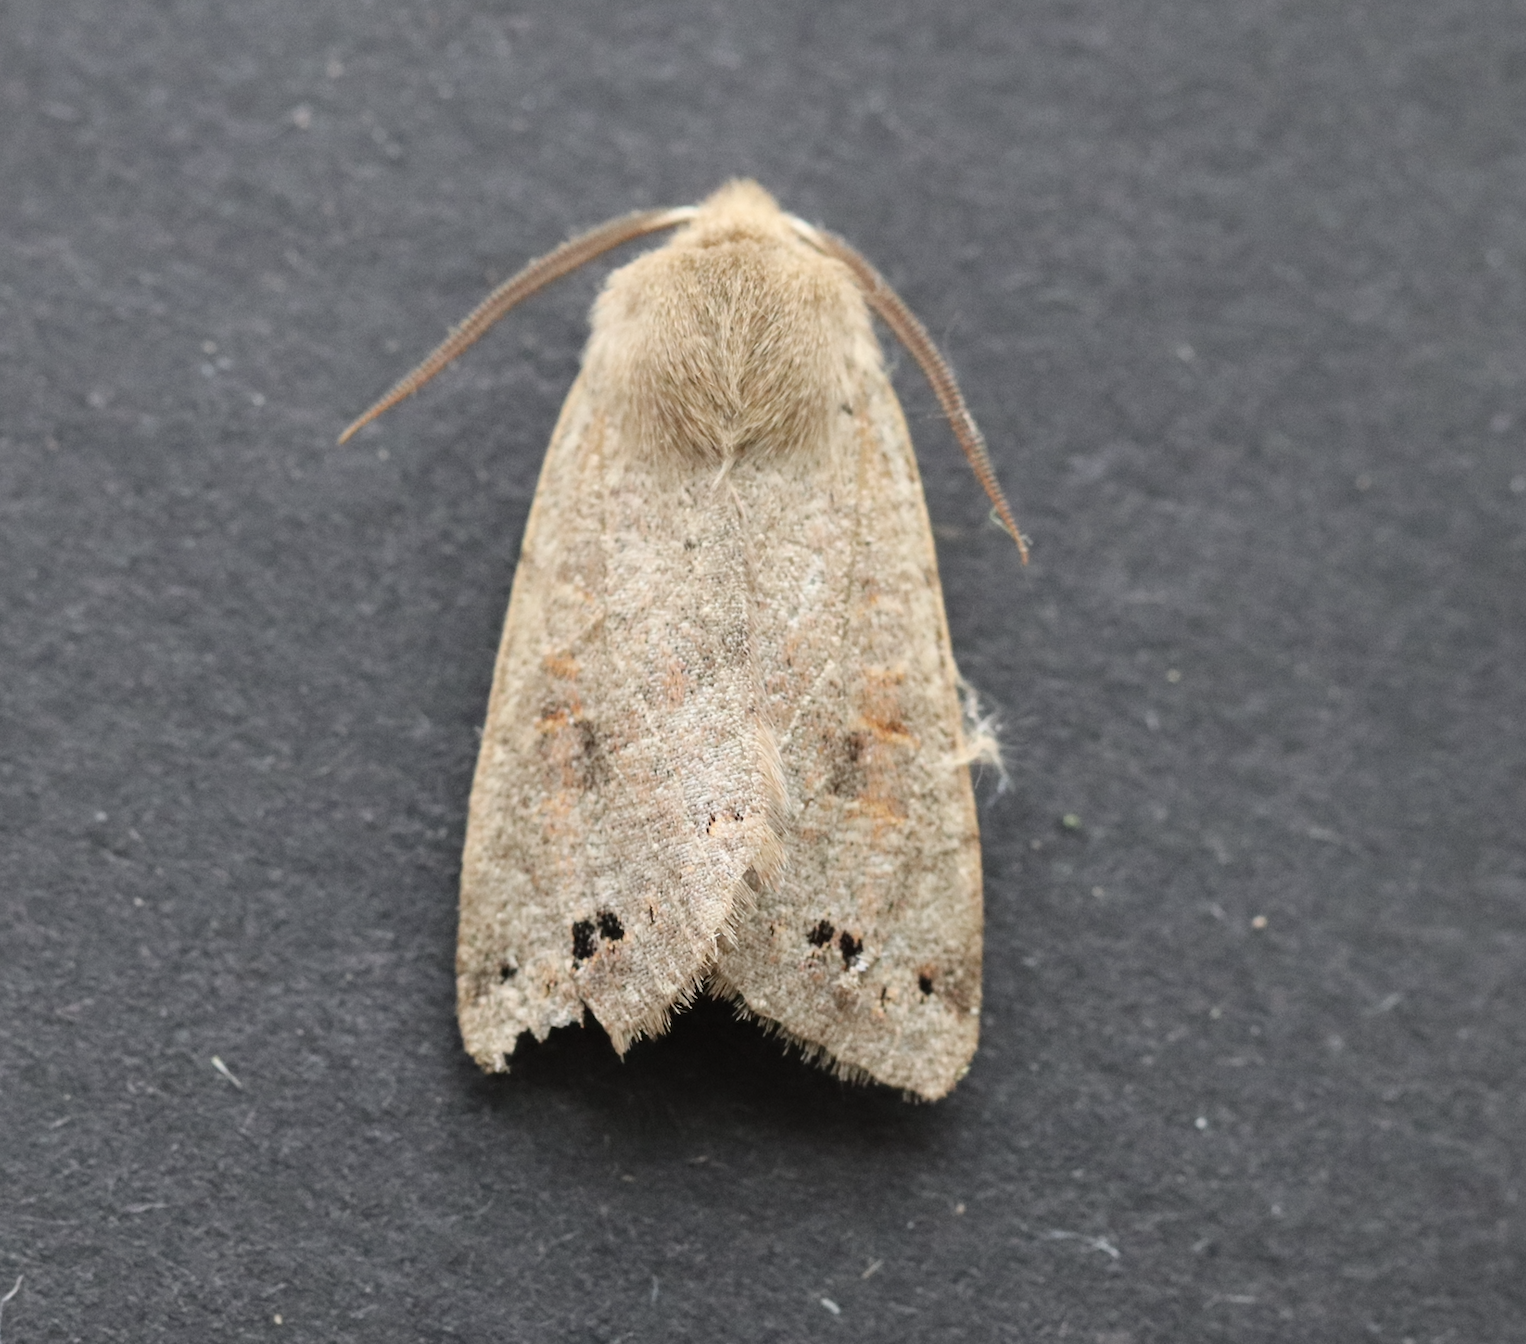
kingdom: Animalia
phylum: Arthropoda
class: Insecta
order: Lepidoptera
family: Noctuidae
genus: Anorthoa
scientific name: Anorthoa munda
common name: Twin-spotted quaker
